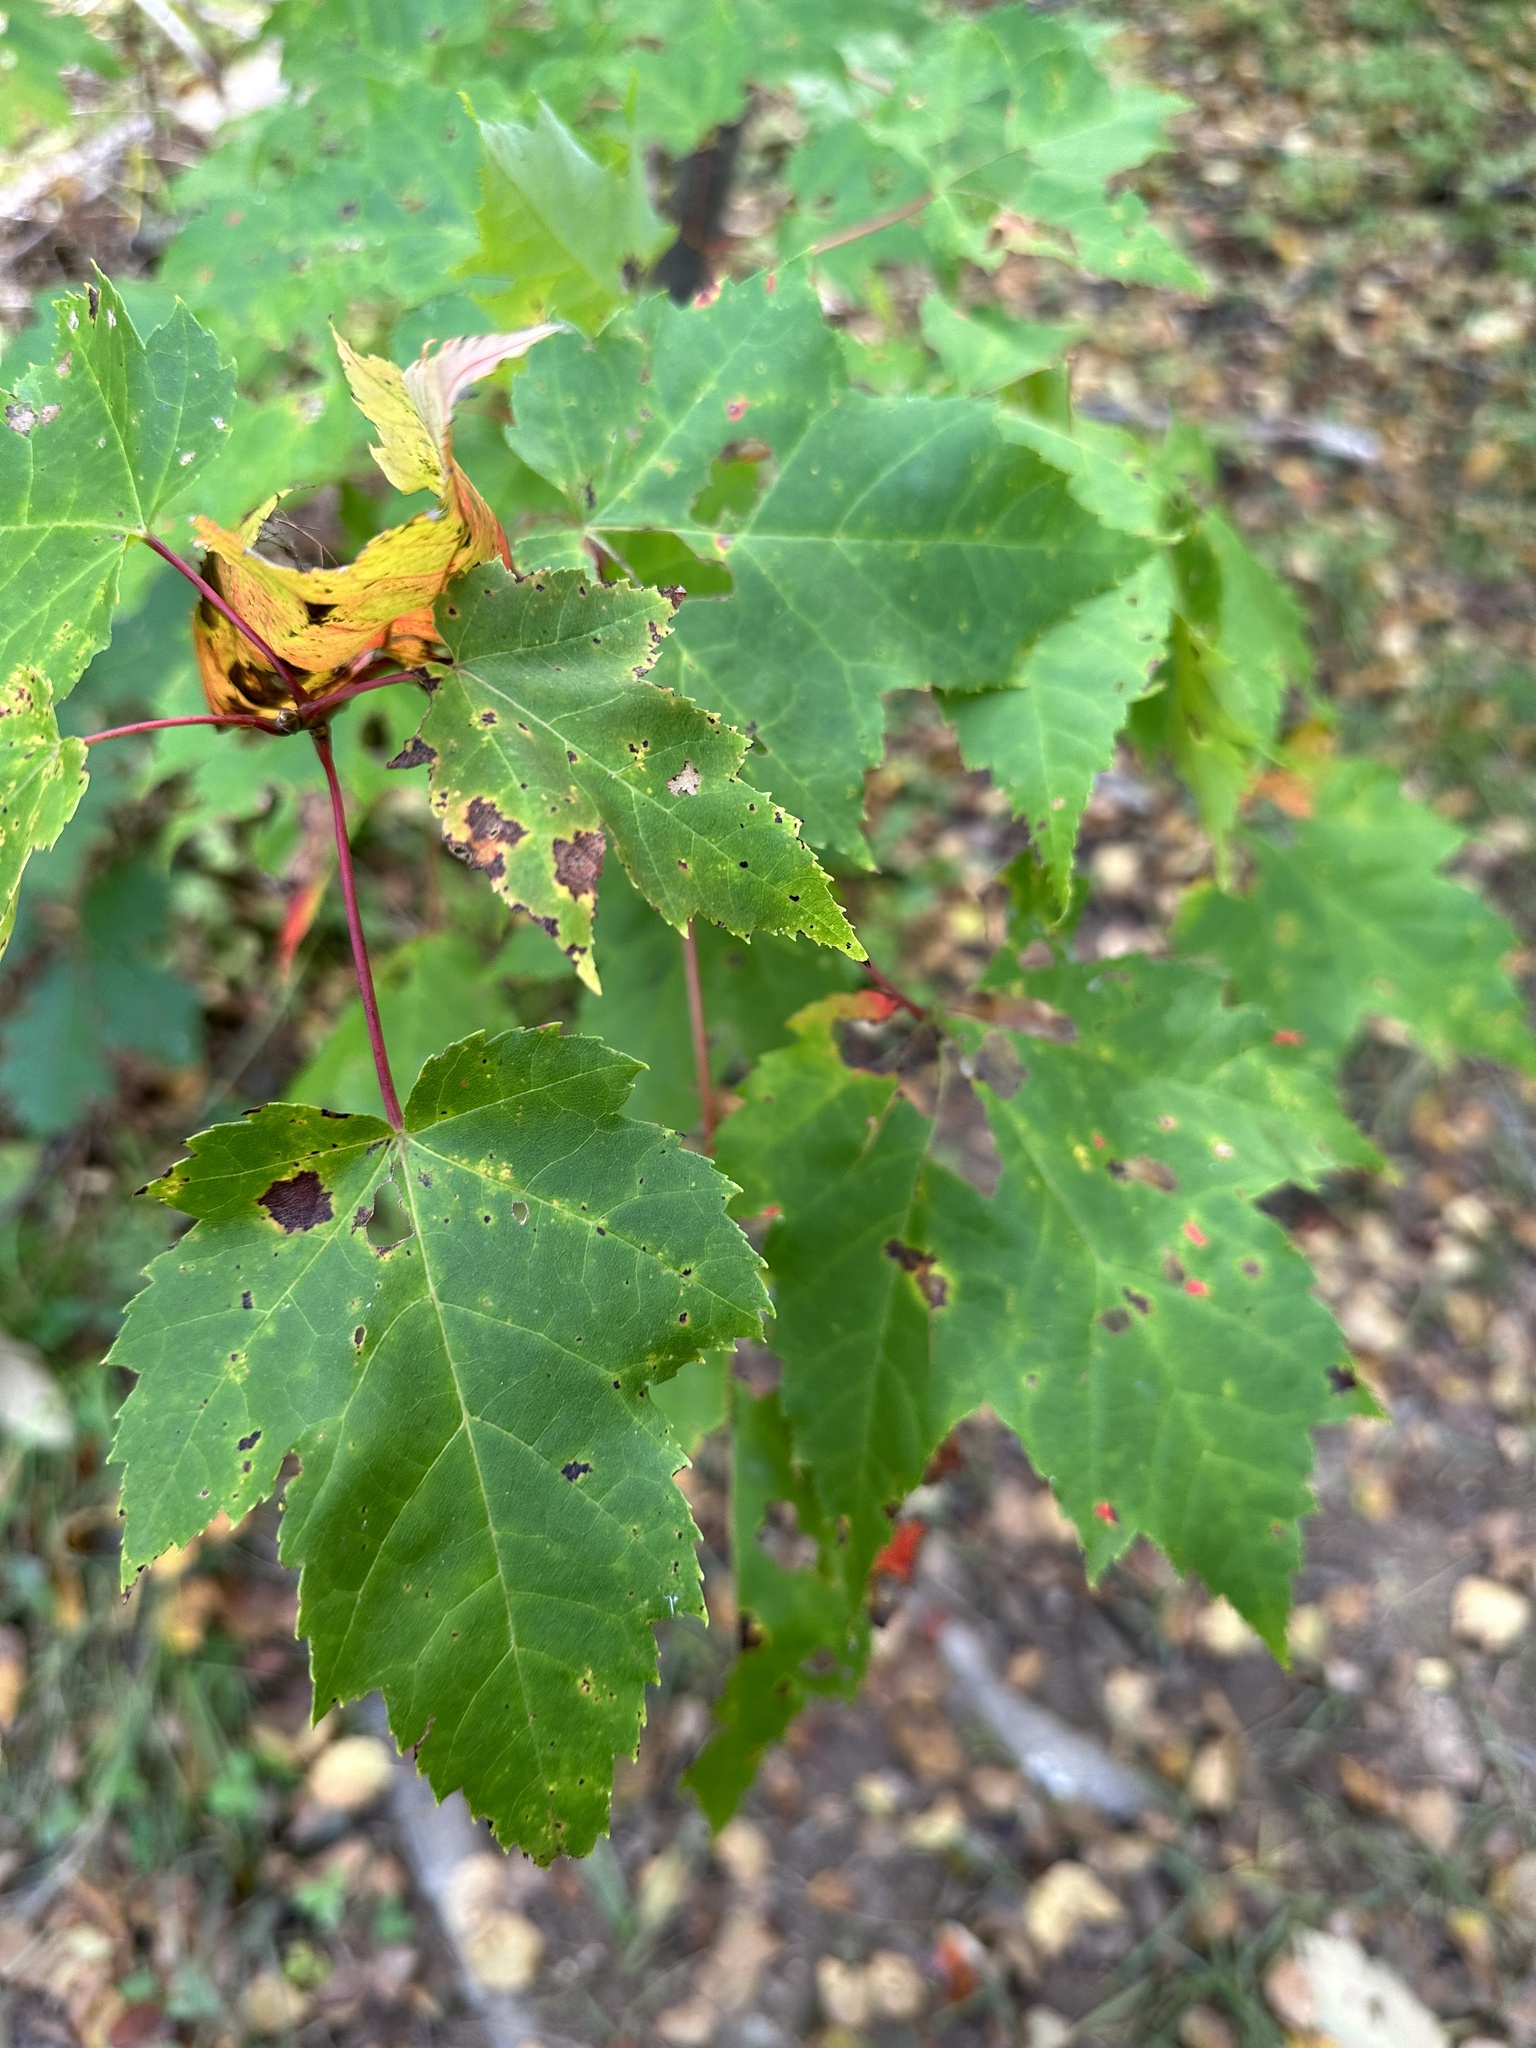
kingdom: Plantae
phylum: Tracheophyta
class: Magnoliopsida
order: Sapindales
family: Sapindaceae
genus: Acer
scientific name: Acer rubrum
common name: Red maple
